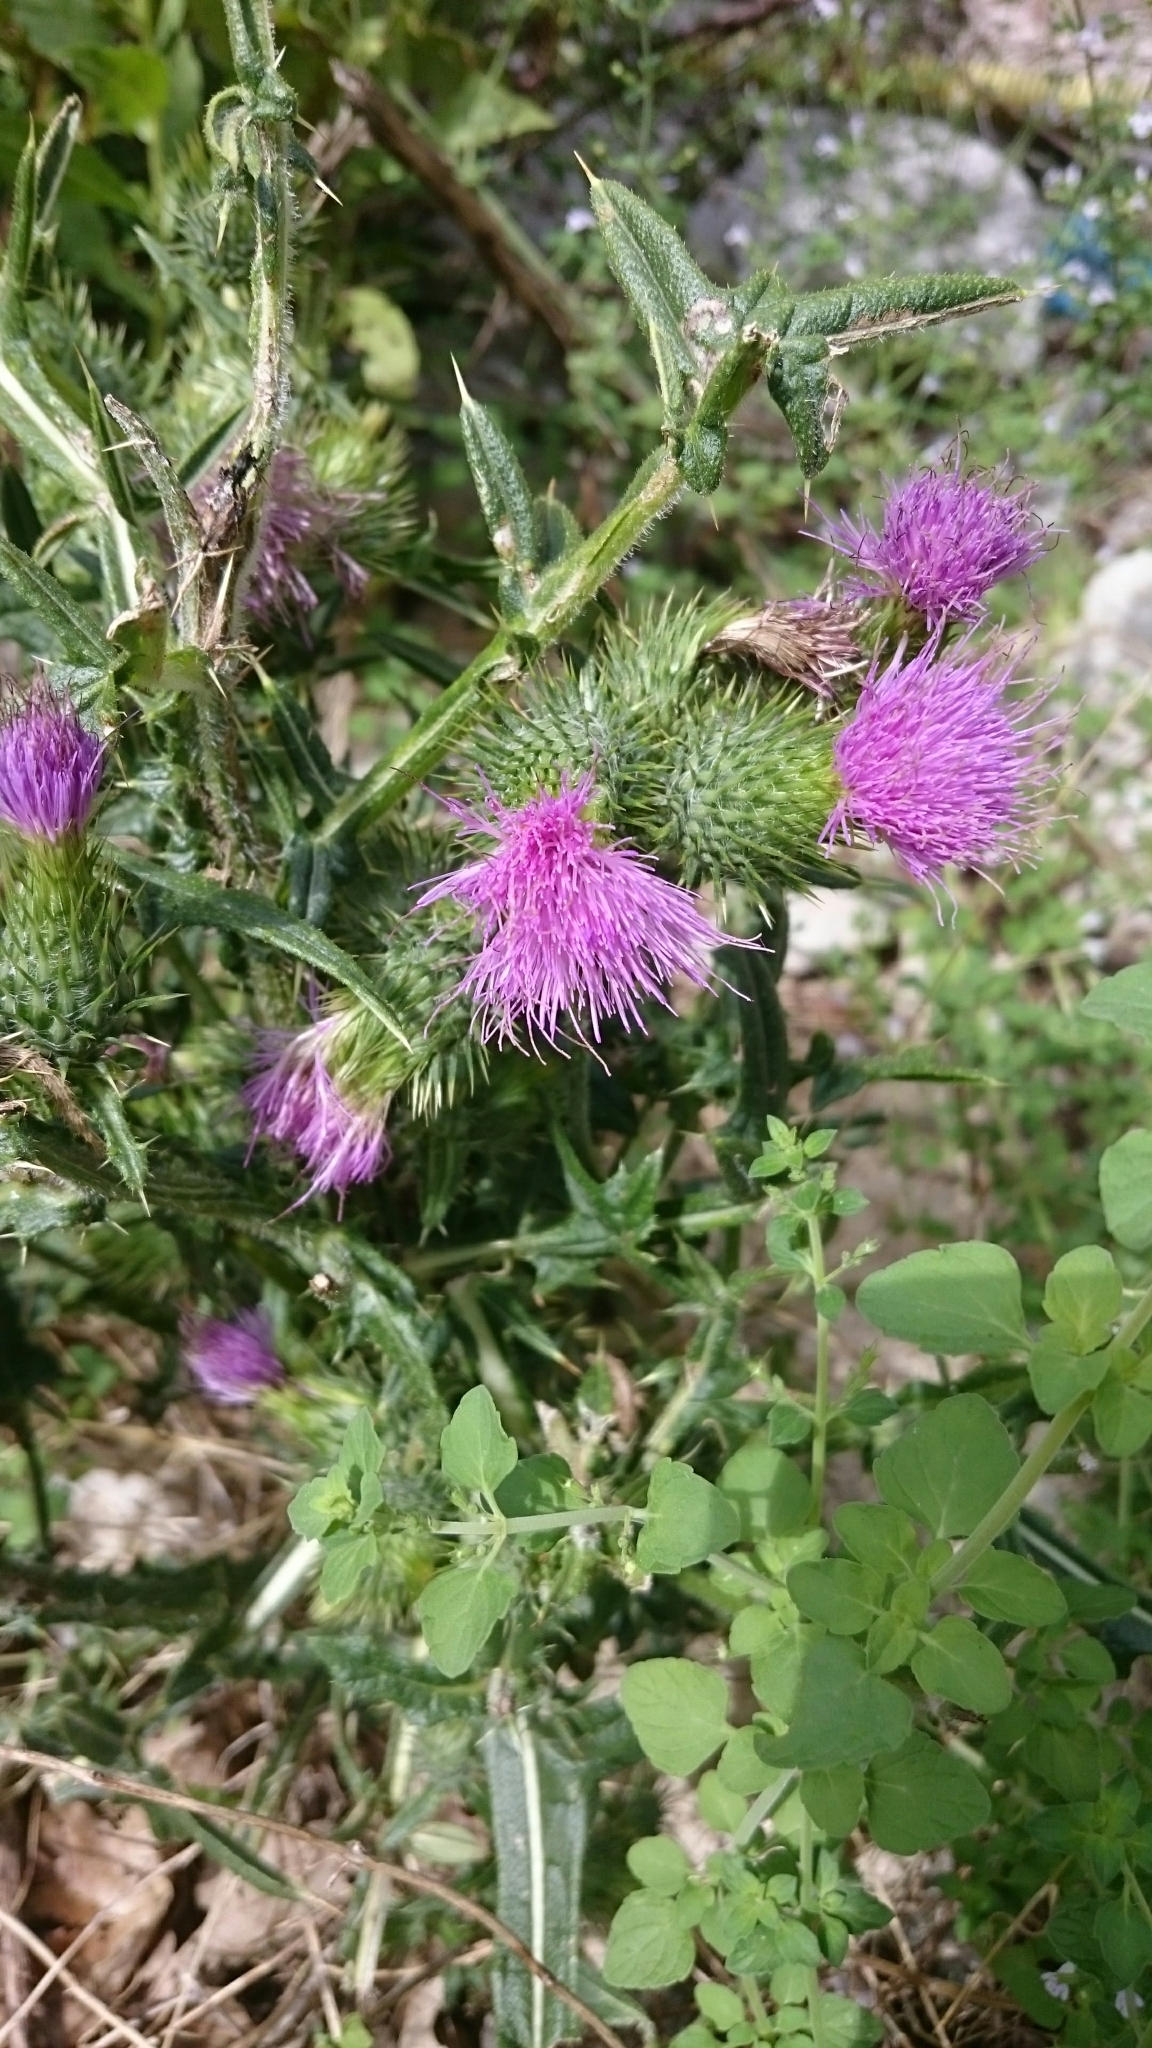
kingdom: Plantae
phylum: Tracheophyta
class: Magnoliopsida
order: Asterales
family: Asteraceae
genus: Cirsium
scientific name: Cirsium vulgare
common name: Bull thistle
